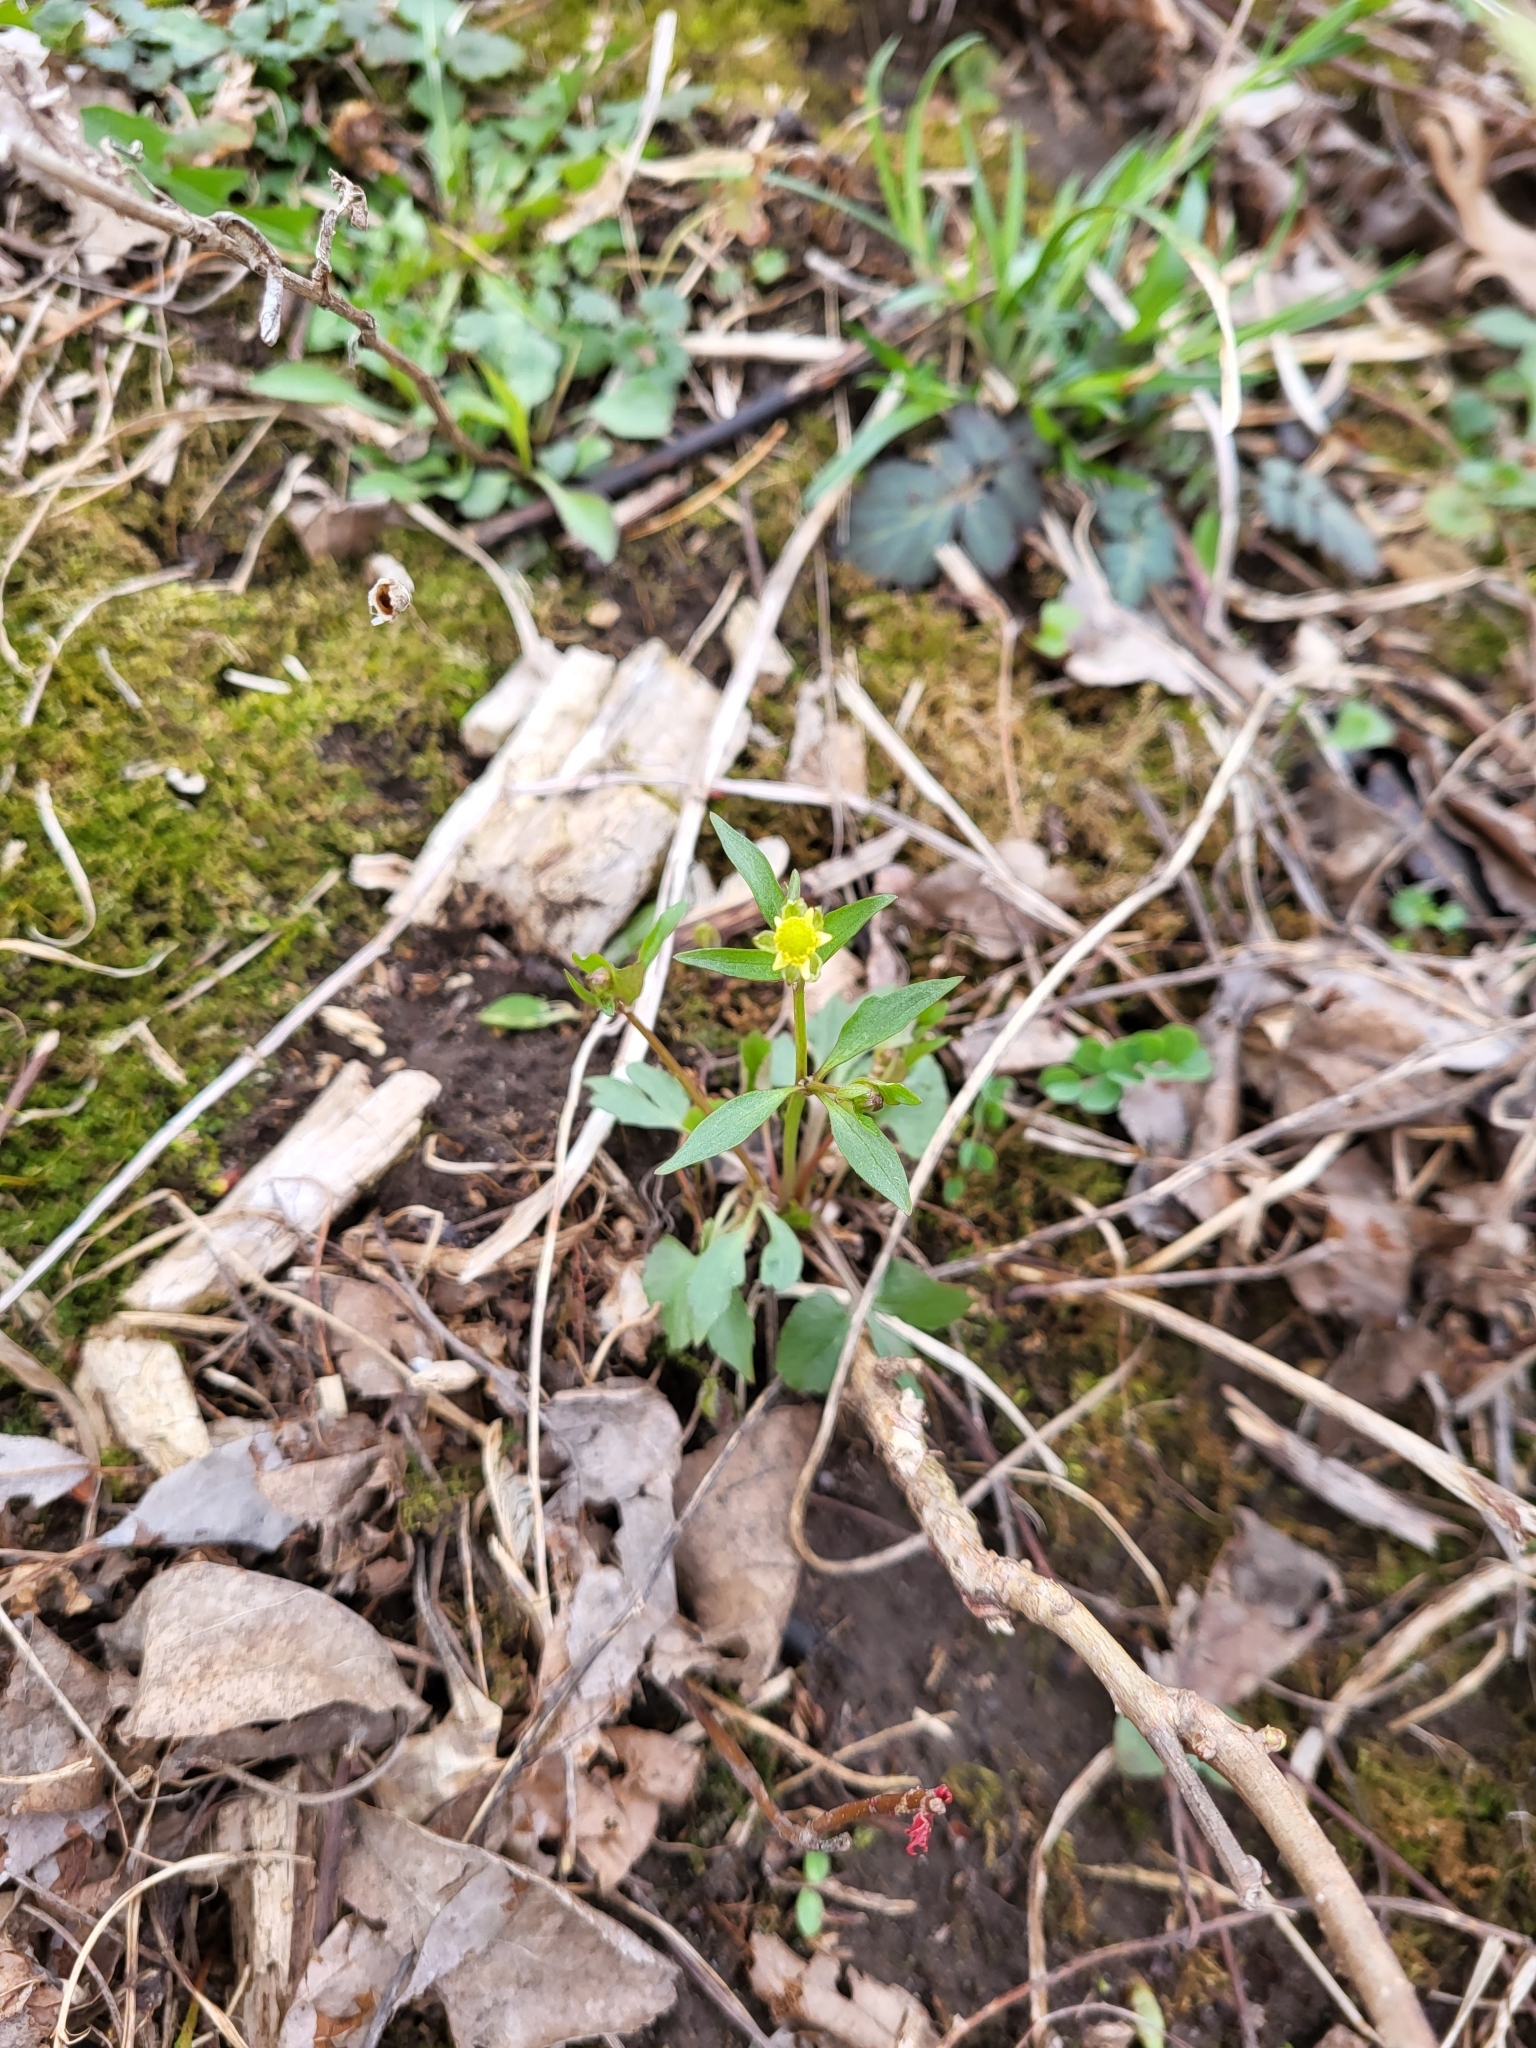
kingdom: Plantae
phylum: Tracheophyta
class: Magnoliopsida
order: Ranunculales
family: Ranunculaceae
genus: Ranunculus
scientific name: Ranunculus abortivus
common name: Early wood buttercup
